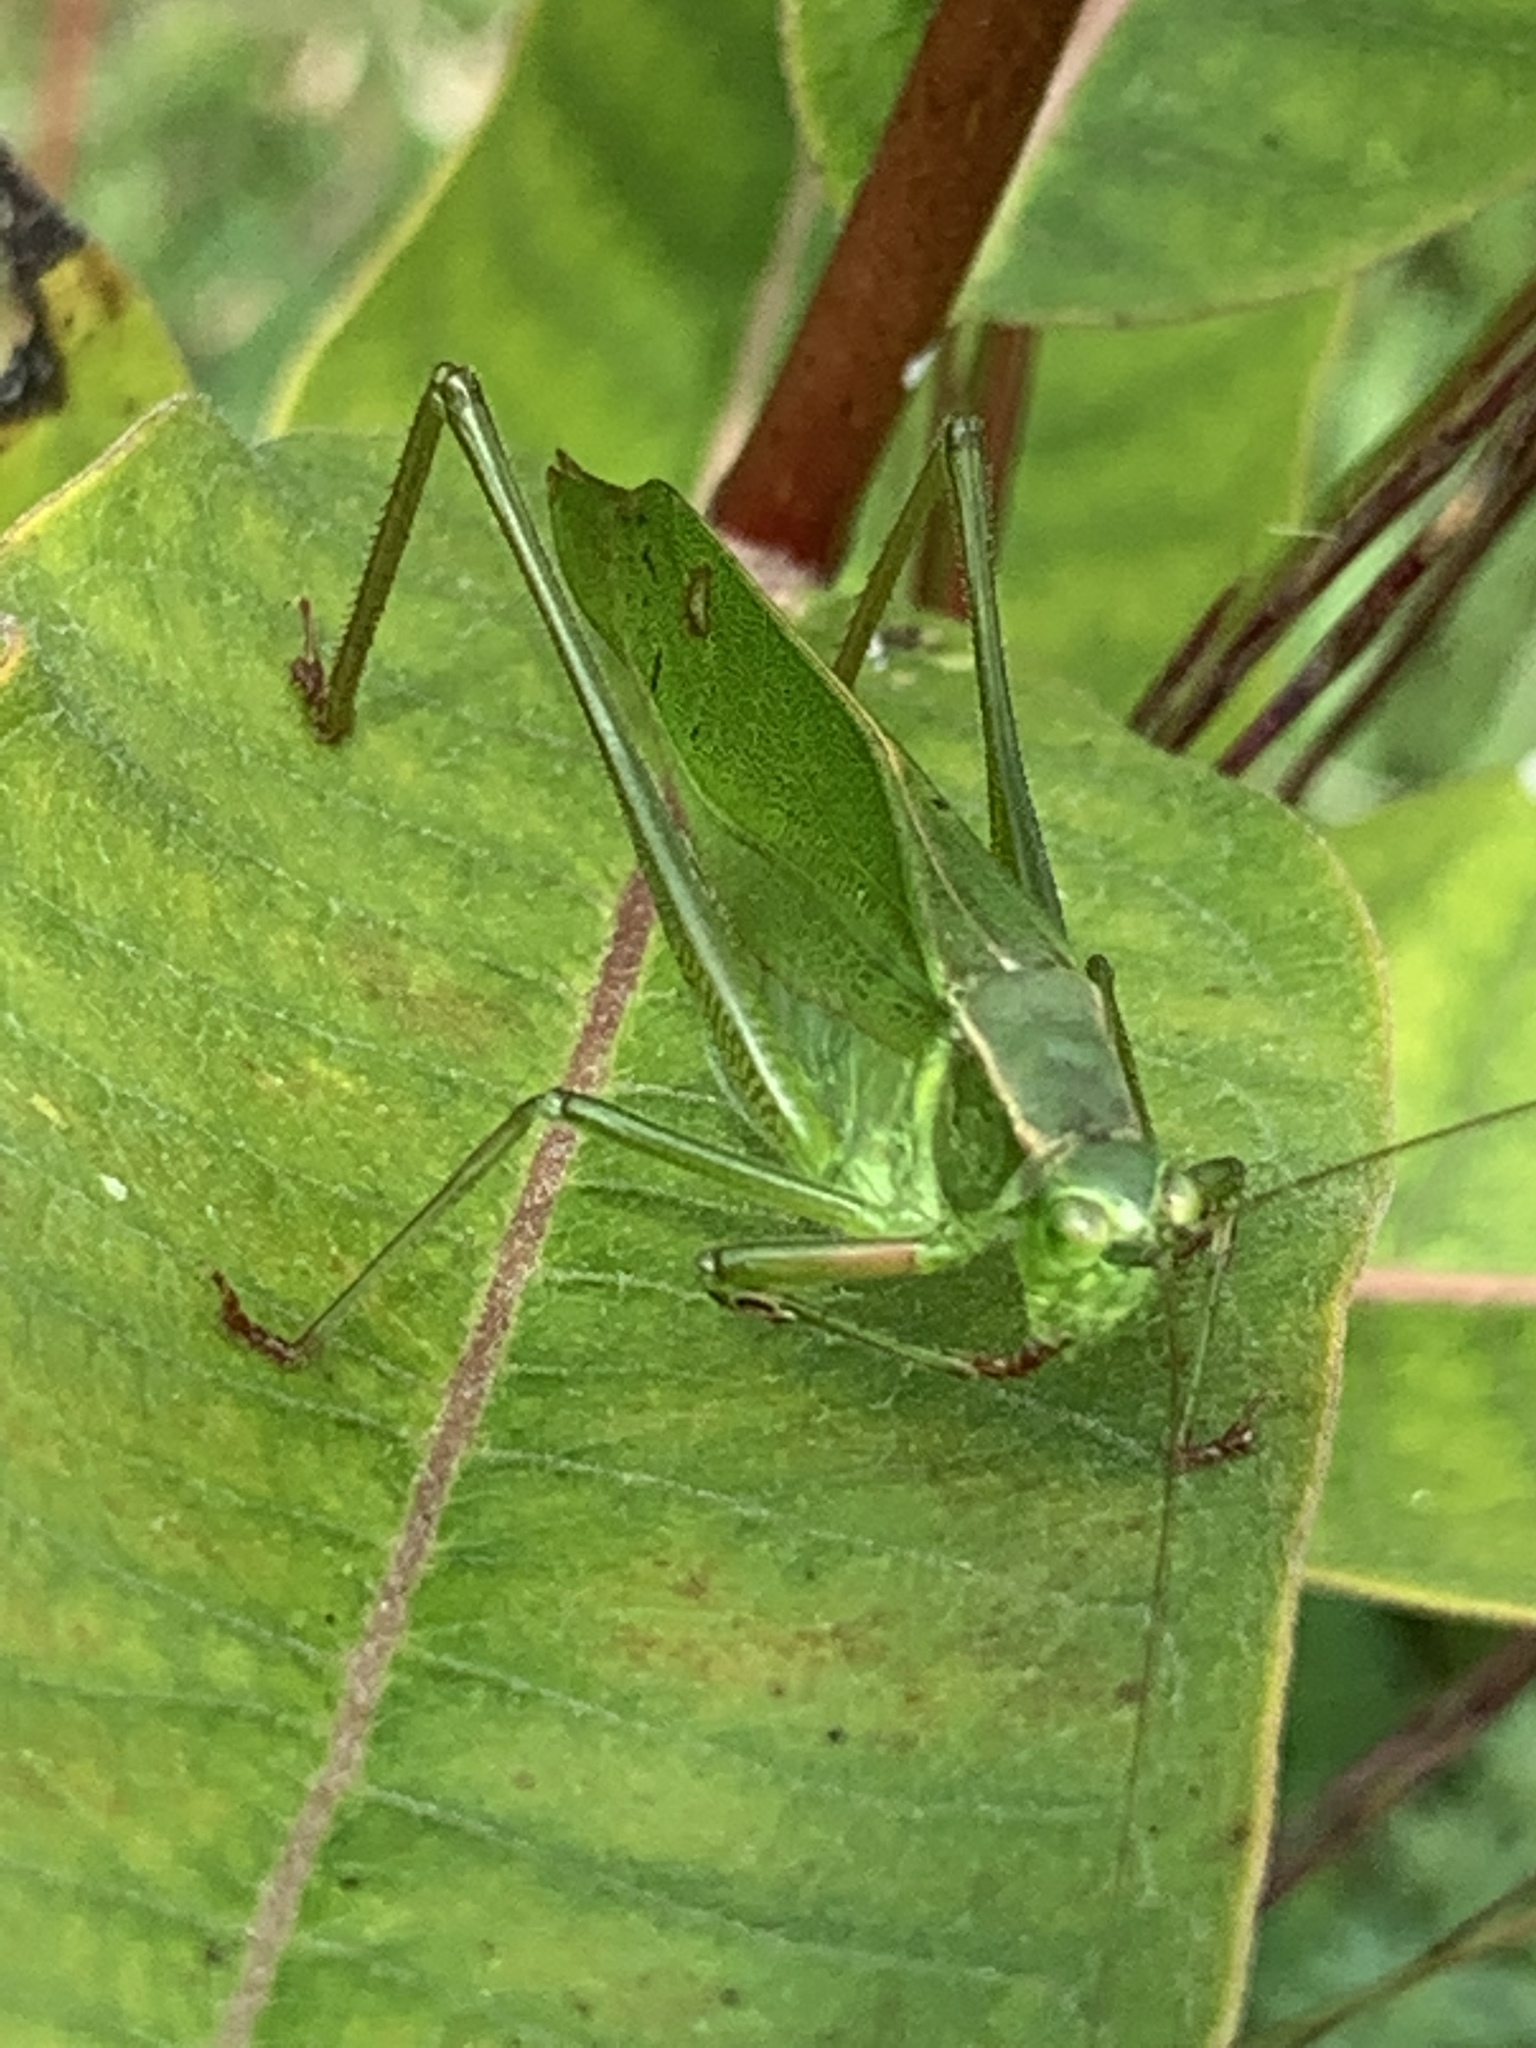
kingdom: Animalia
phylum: Arthropoda
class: Insecta
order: Orthoptera
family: Tettigoniidae
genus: Scudderia
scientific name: Scudderia furcata
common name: Fork-tailed bush katydid
